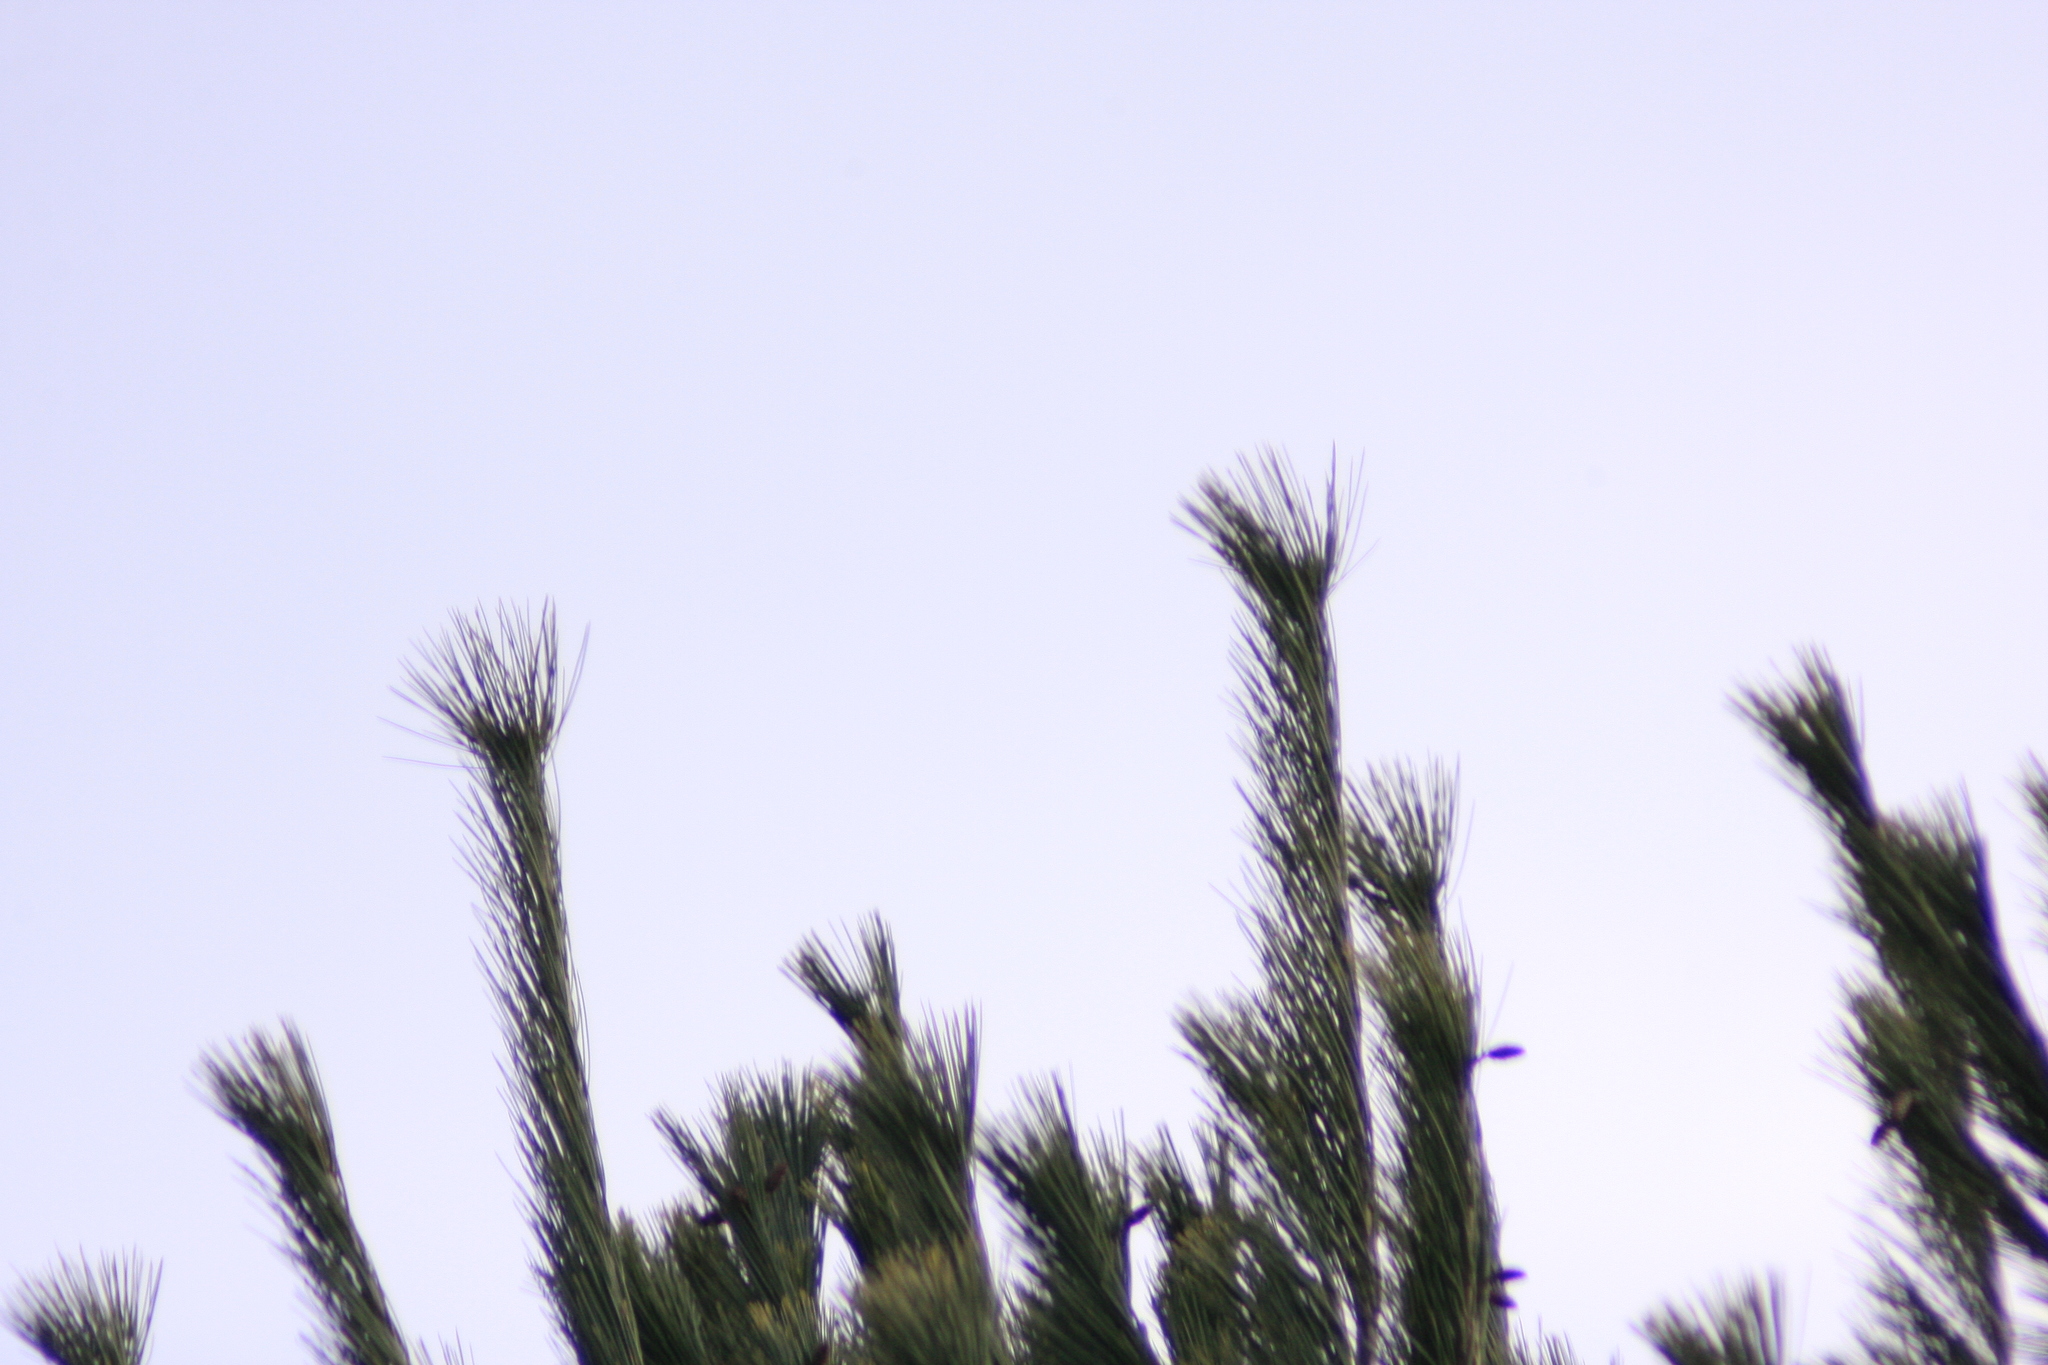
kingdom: Plantae
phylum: Tracheophyta
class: Pinopsida
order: Pinales
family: Pinaceae
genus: Pinus
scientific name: Pinus strobus
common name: Weymouth pine
